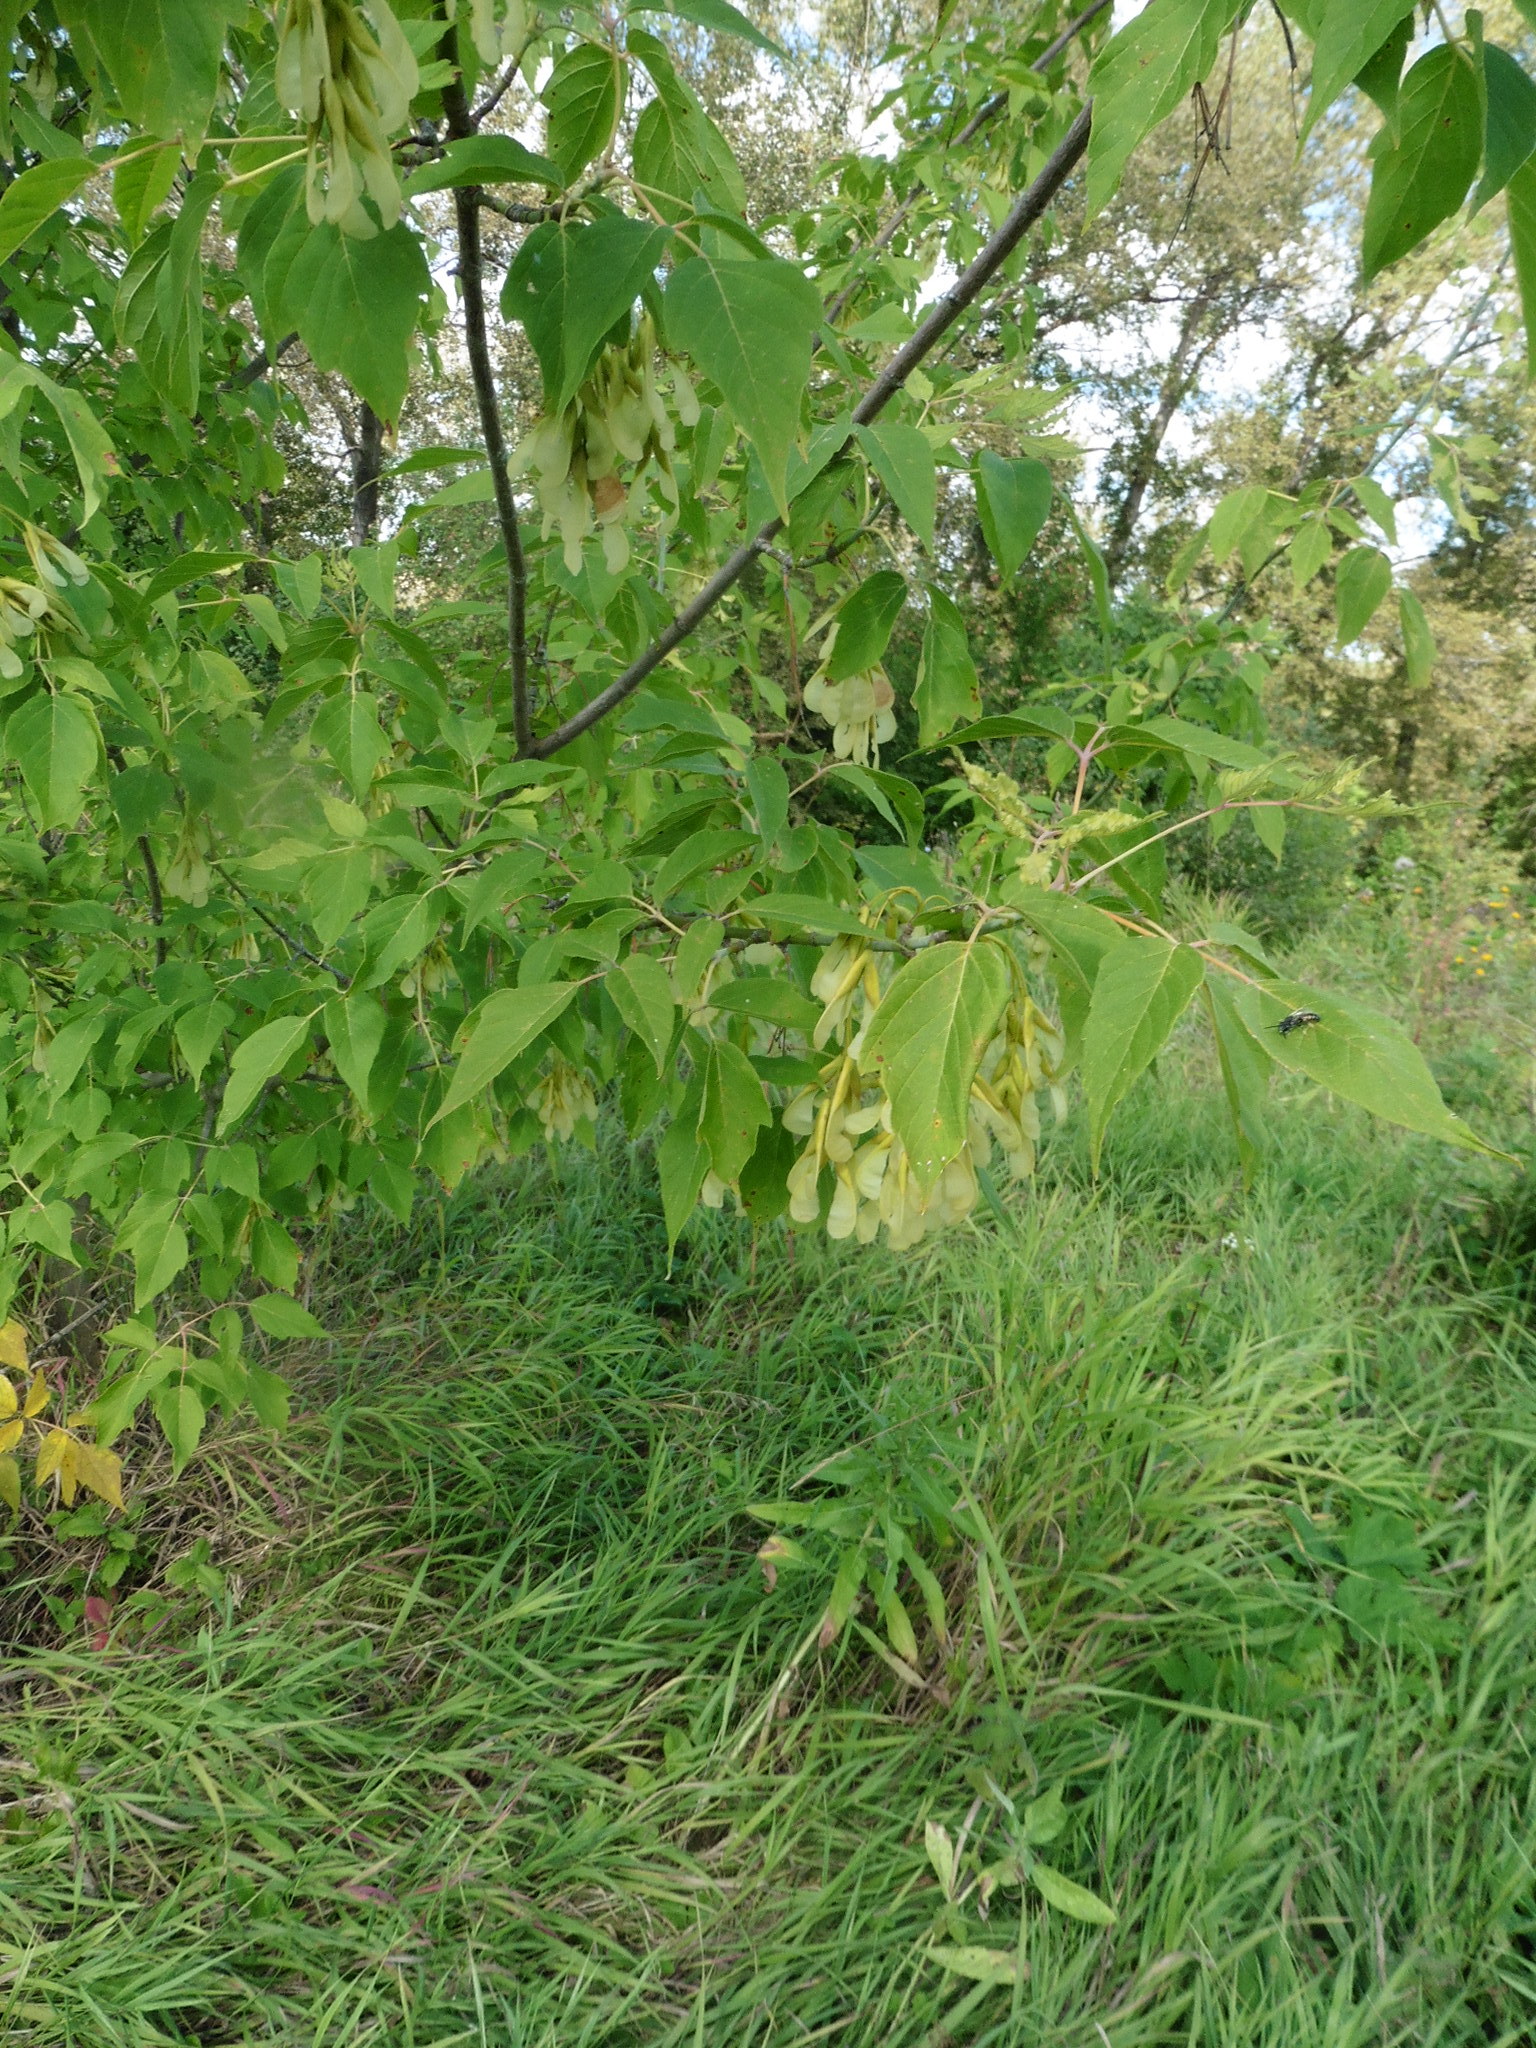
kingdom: Plantae
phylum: Tracheophyta
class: Magnoliopsida
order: Sapindales
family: Sapindaceae
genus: Acer
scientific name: Acer negundo
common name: Ashleaf maple
